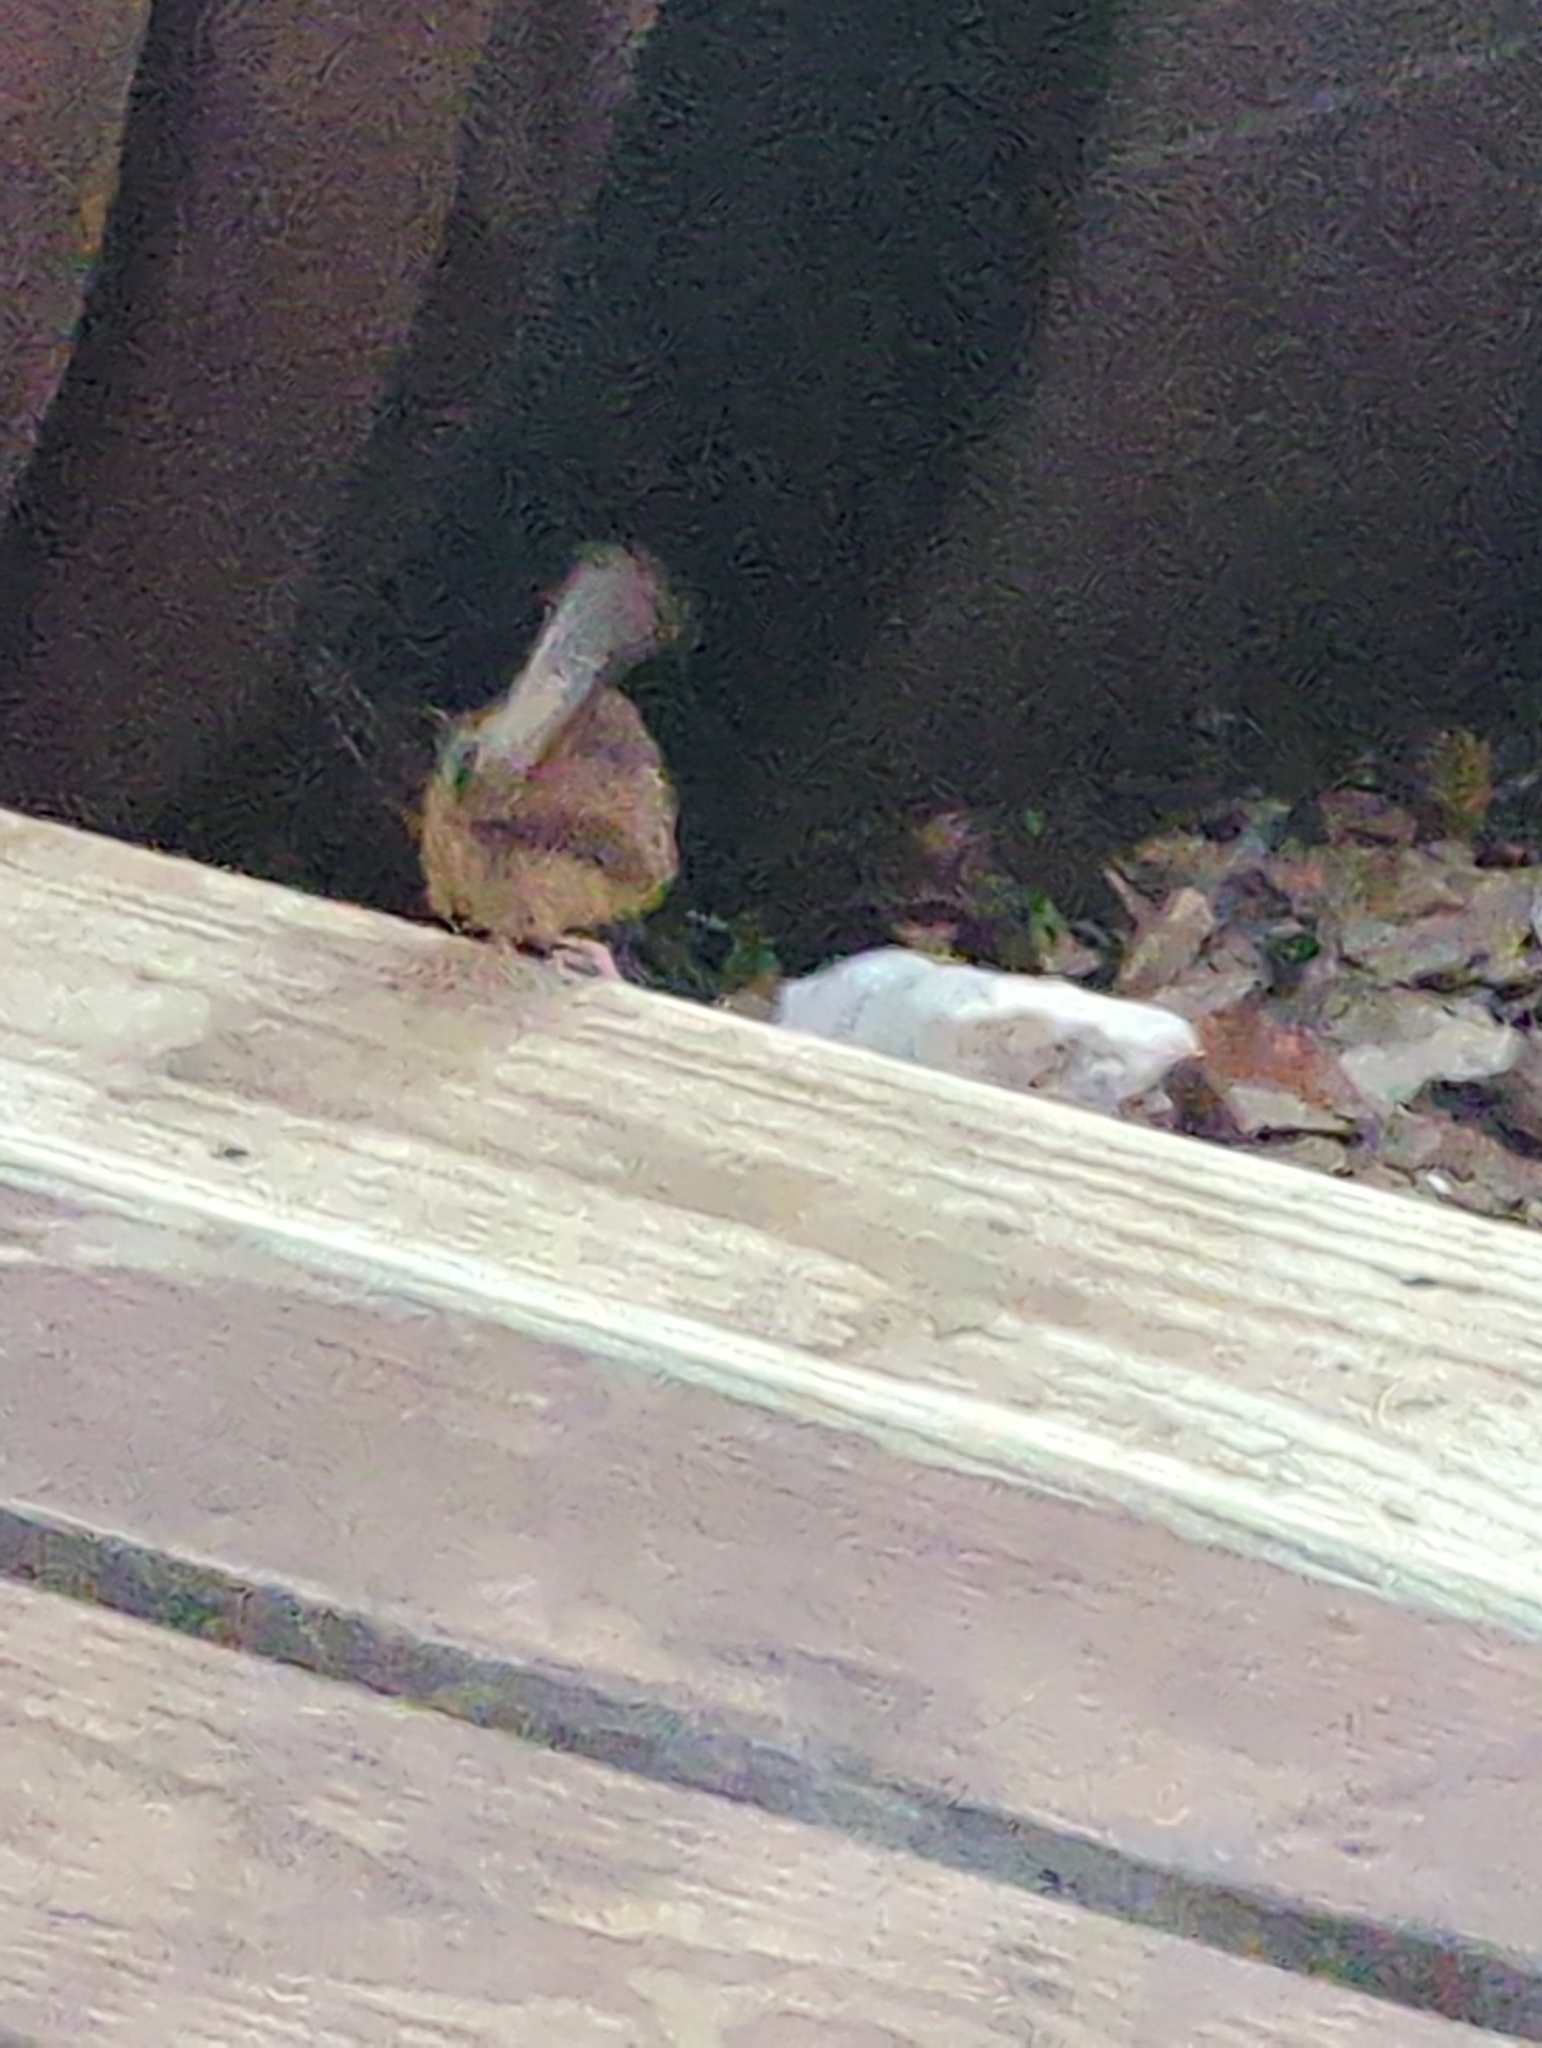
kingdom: Animalia
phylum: Chordata
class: Aves
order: Passeriformes
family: Troglodytidae
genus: Thryothorus
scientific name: Thryothorus ludovicianus
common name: Carolina wren
